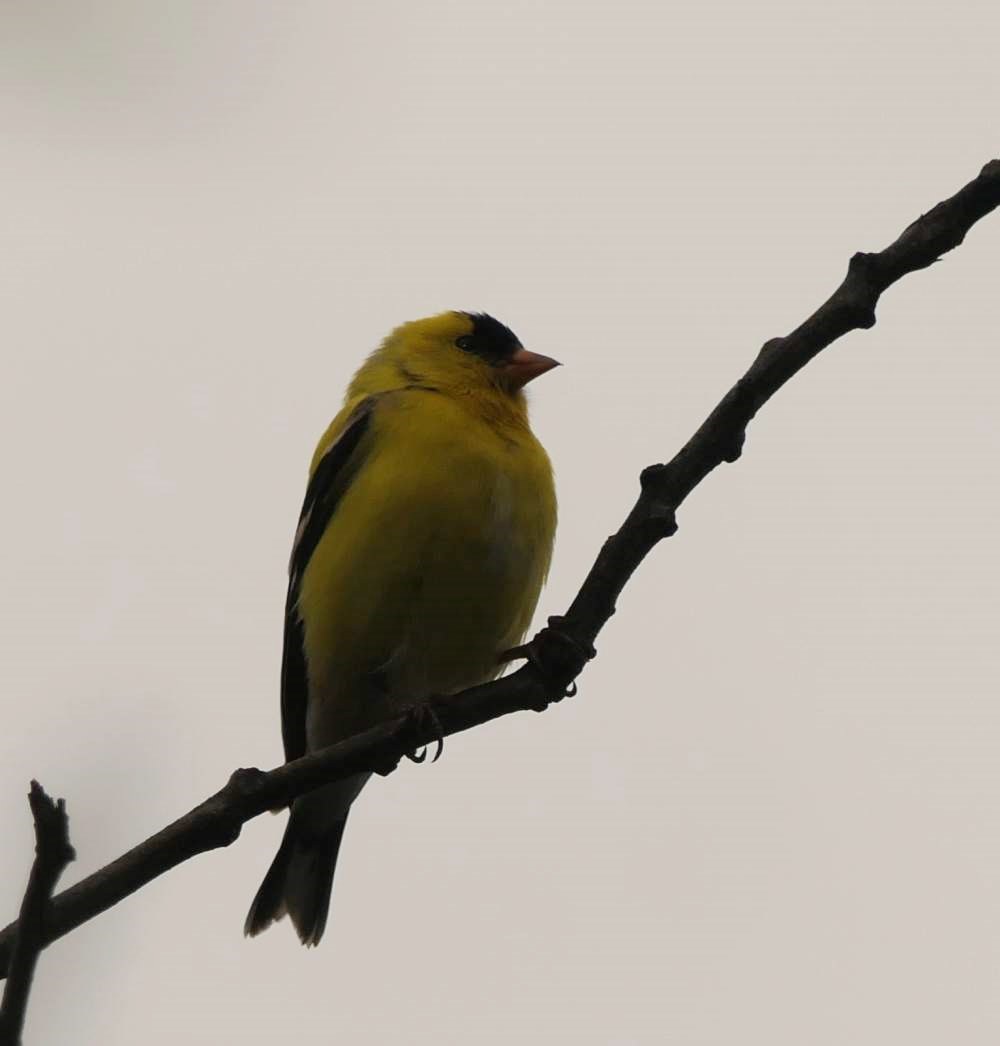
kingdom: Animalia
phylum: Chordata
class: Aves
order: Passeriformes
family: Fringillidae
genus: Spinus
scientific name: Spinus tristis
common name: American goldfinch
